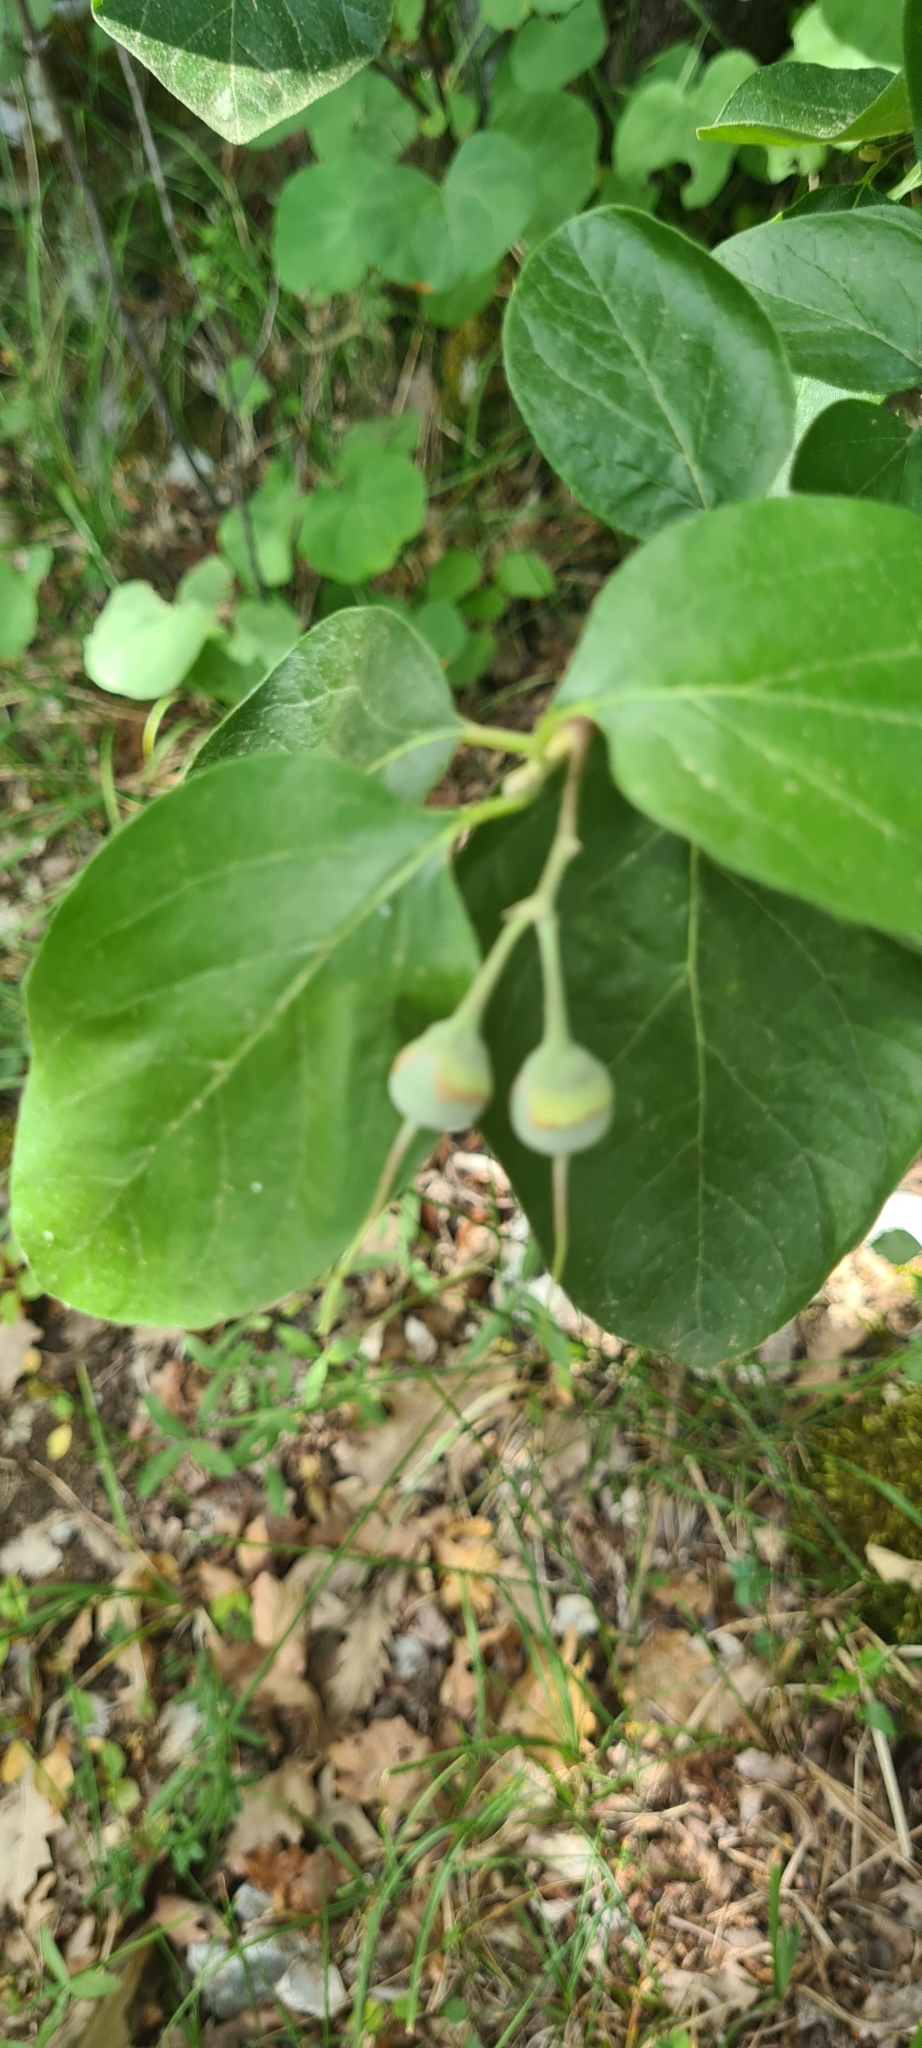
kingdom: Plantae
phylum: Tracheophyta
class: Magnoliopsida
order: Ericales
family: Styracaceae
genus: Styrax
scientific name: Styrax officinalis
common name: Storax
